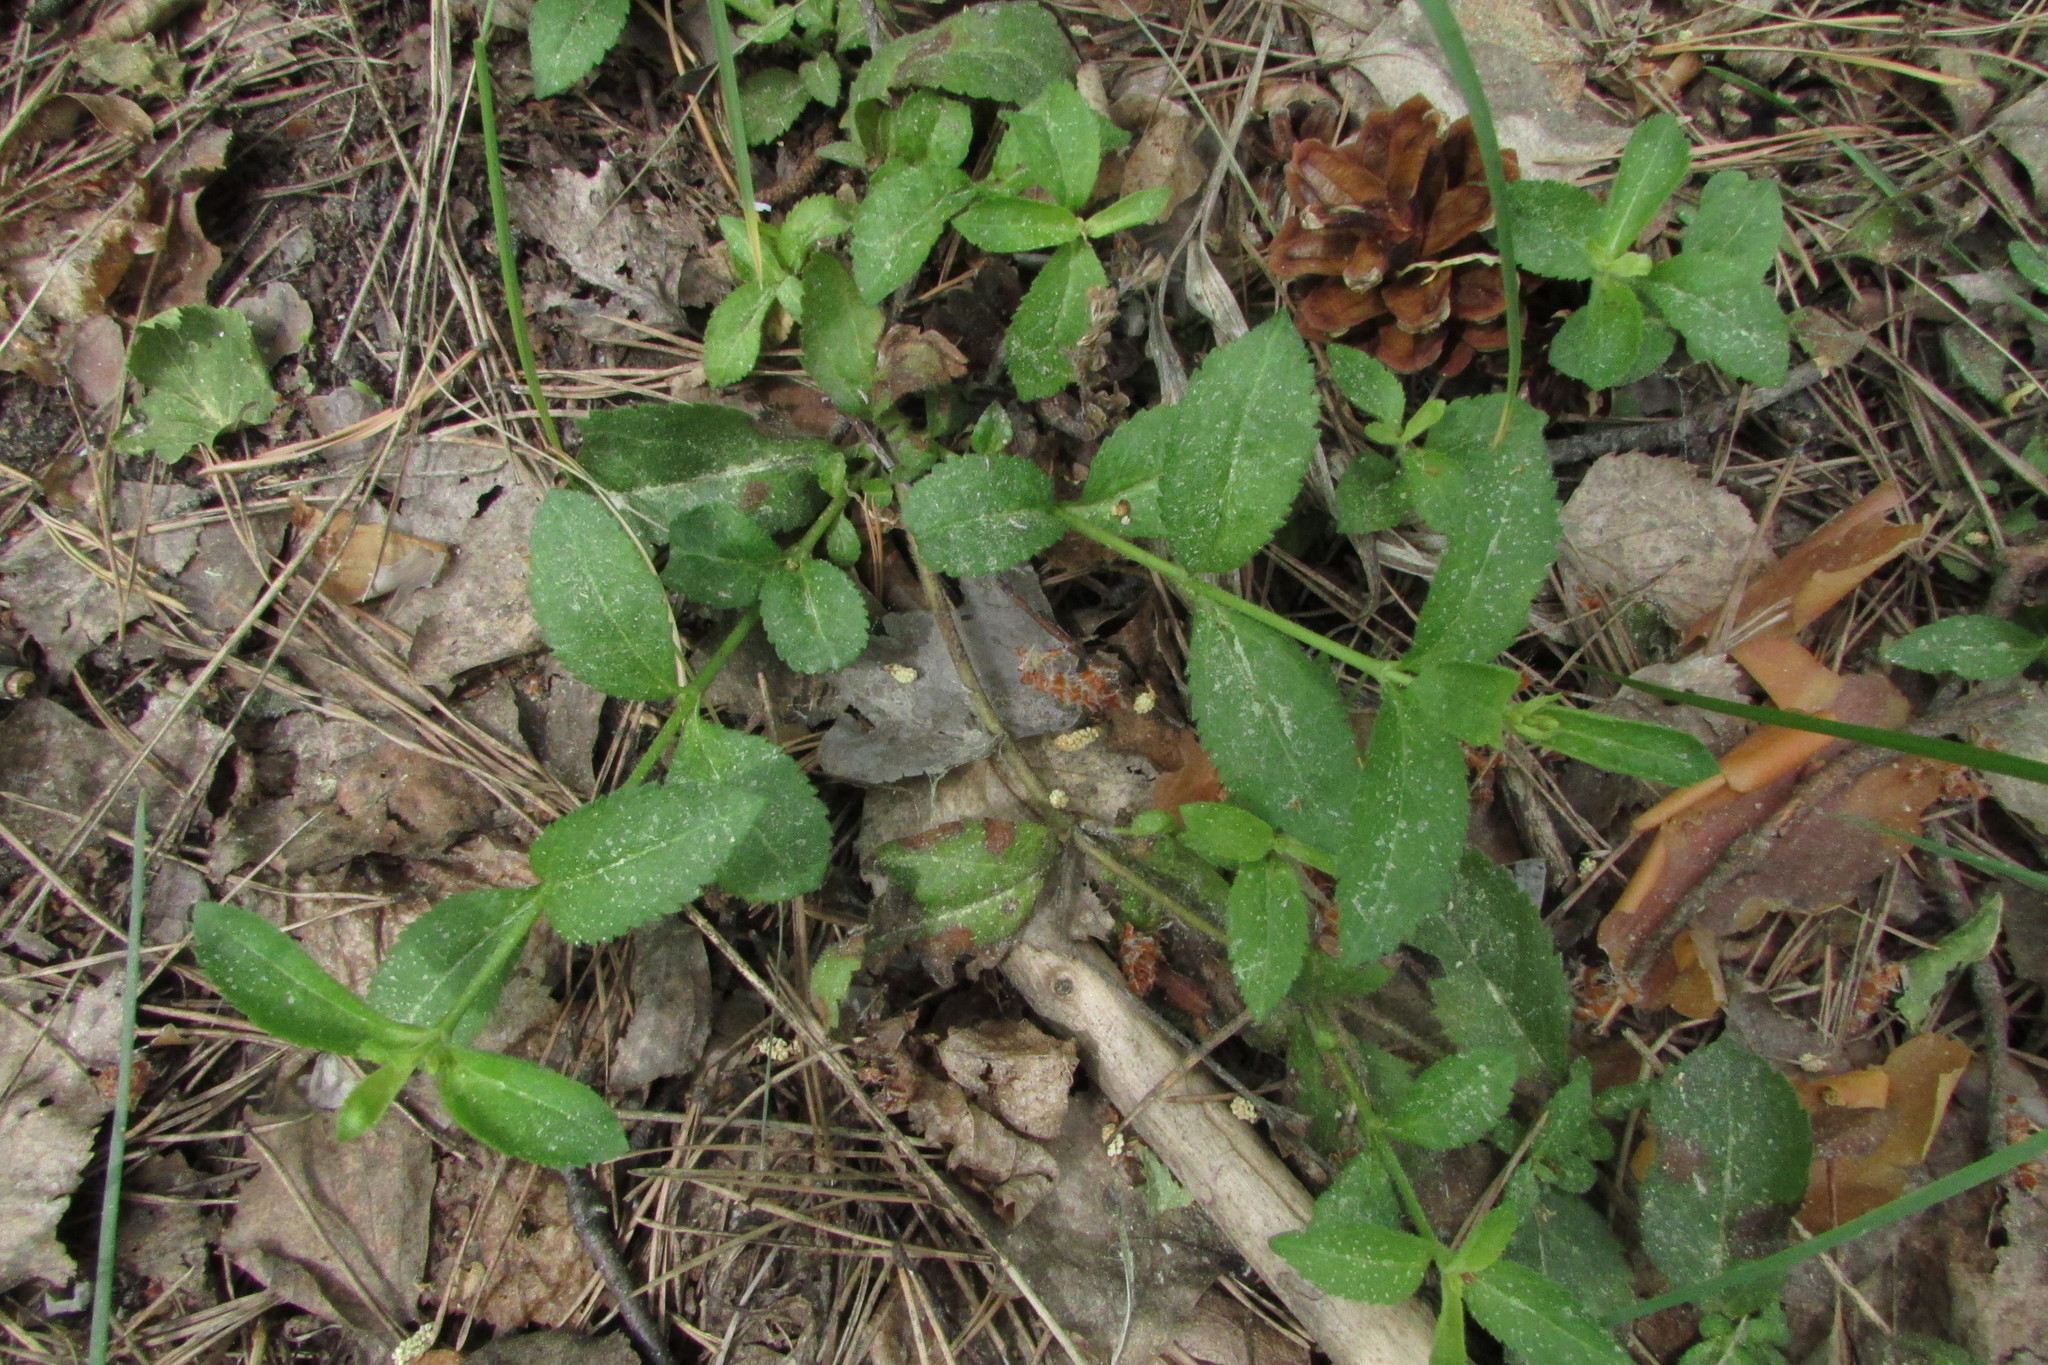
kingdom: Plantae
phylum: Tracheophyta
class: Magnoliopsida
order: Lamiales
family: Plantaginaceae
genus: Veronica
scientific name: Veronica officinalis
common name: Common speedwell
